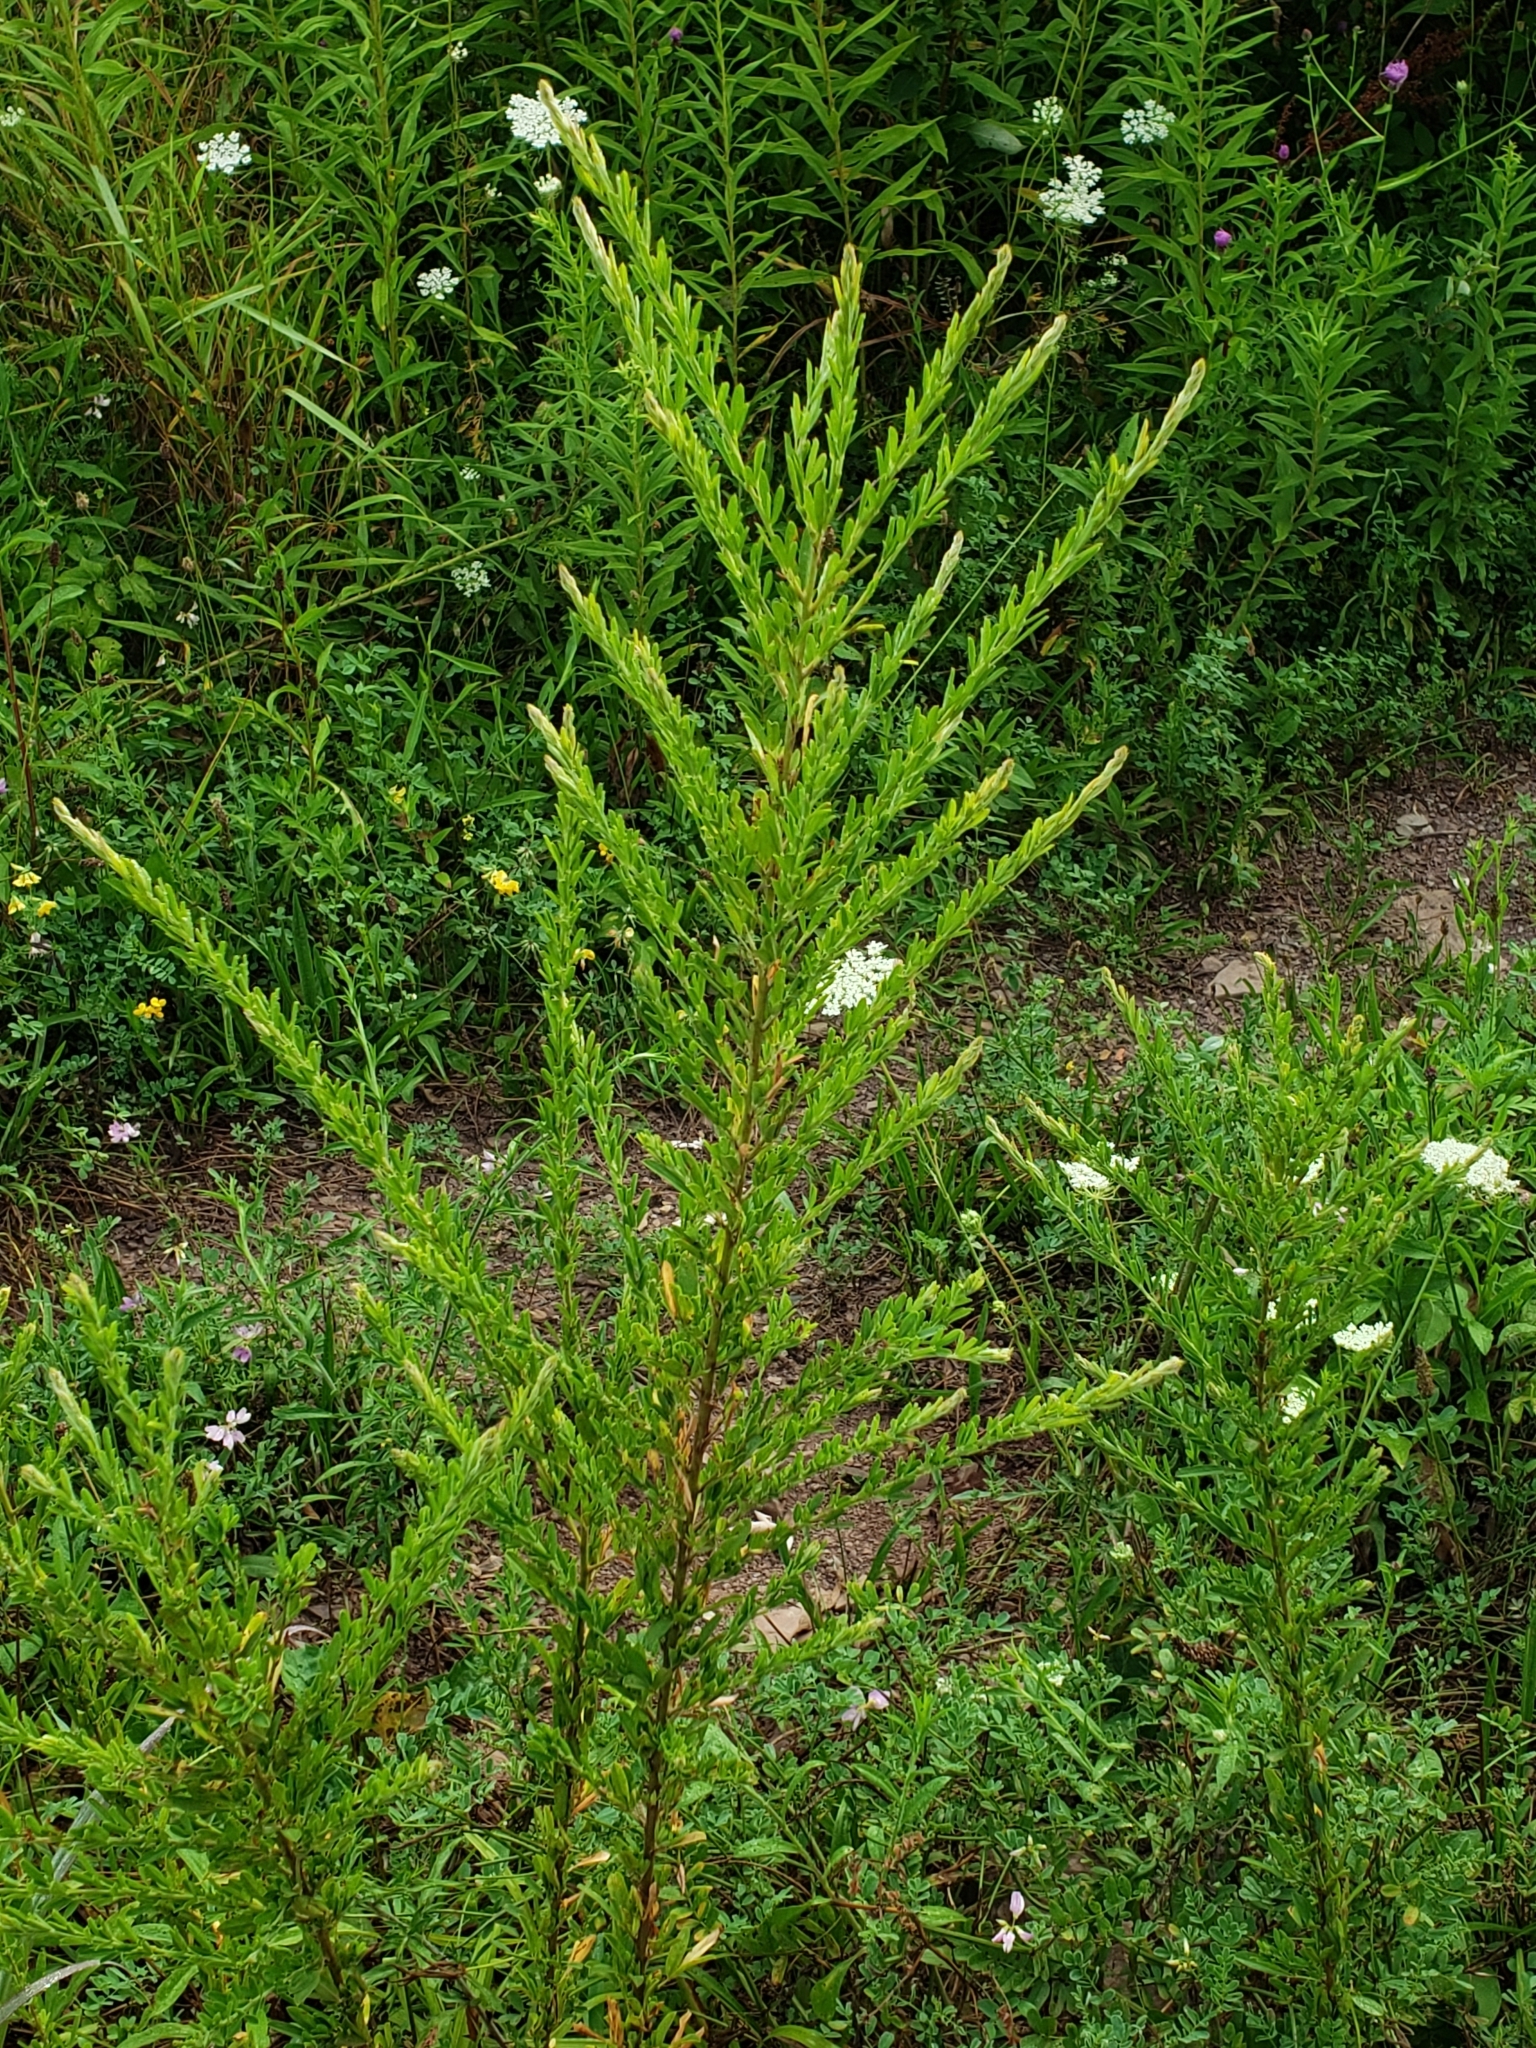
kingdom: Plantae
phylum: Tracheophyta
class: Magnoliopsida
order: Fabales
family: Fabaceae
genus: Lespedeza
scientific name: Lespedeza cuneata
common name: Chinese bush-clover
